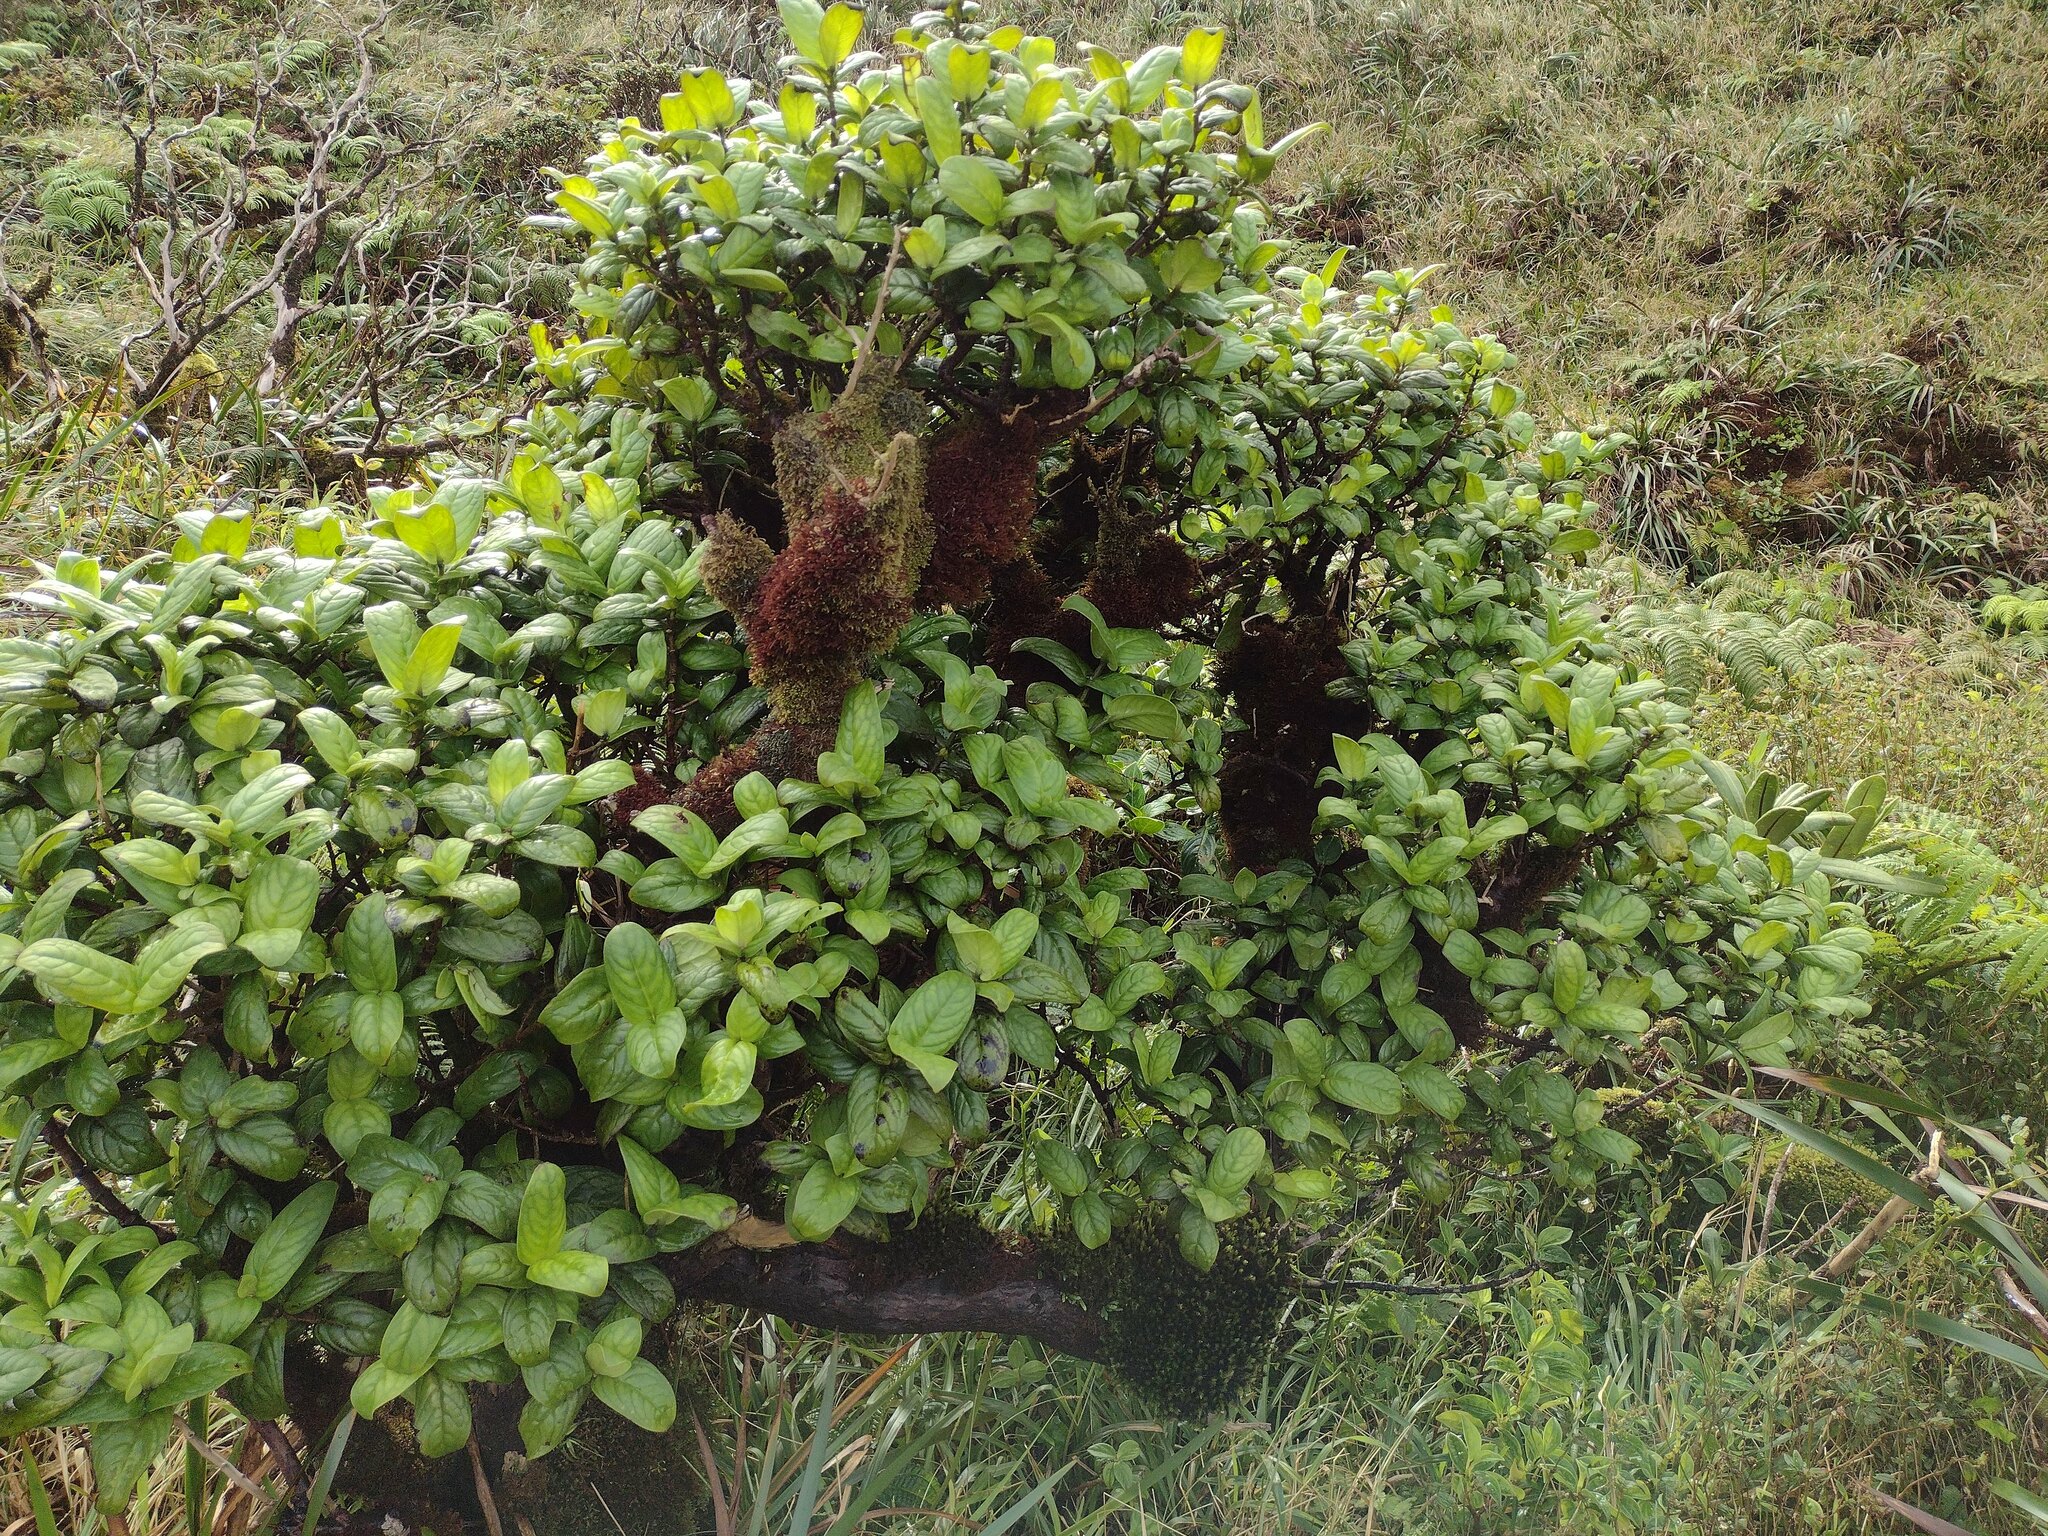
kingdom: Plantae
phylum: Tracheophyta
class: Magnoliopsida
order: Gentianales
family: Rubiaceae
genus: Kadua
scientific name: Kadua munroi
